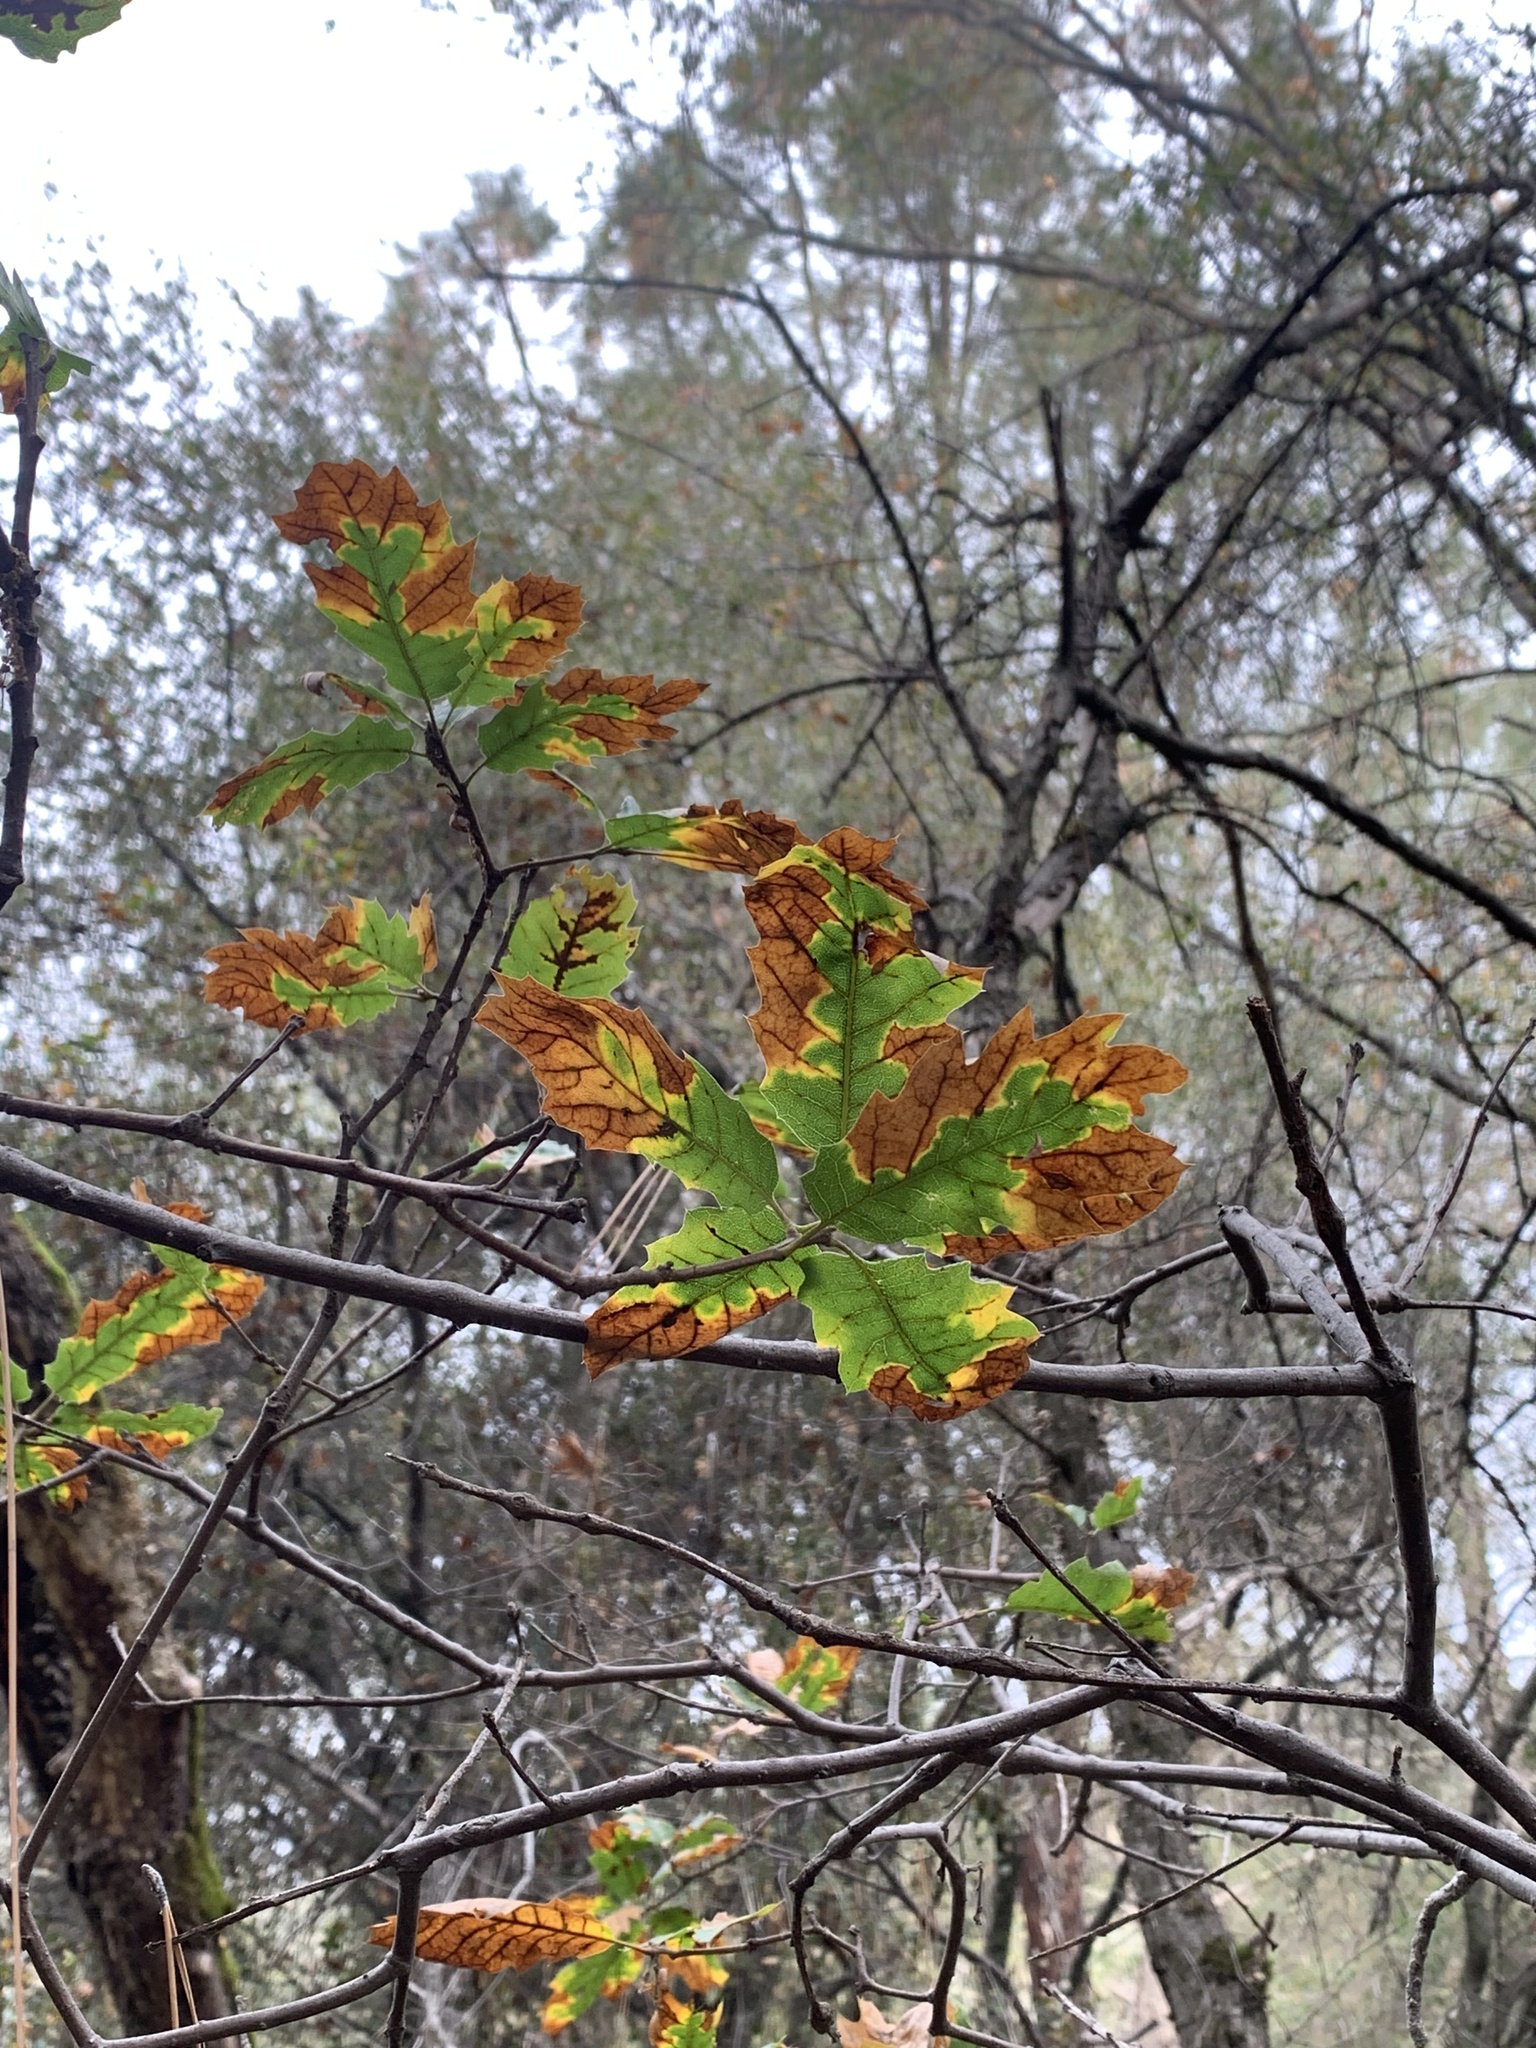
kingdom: Plantae
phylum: Tracheophyta
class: Magnoliopsida
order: Fagales
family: Fagaceae
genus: Quercus
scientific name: Quercus morehus
